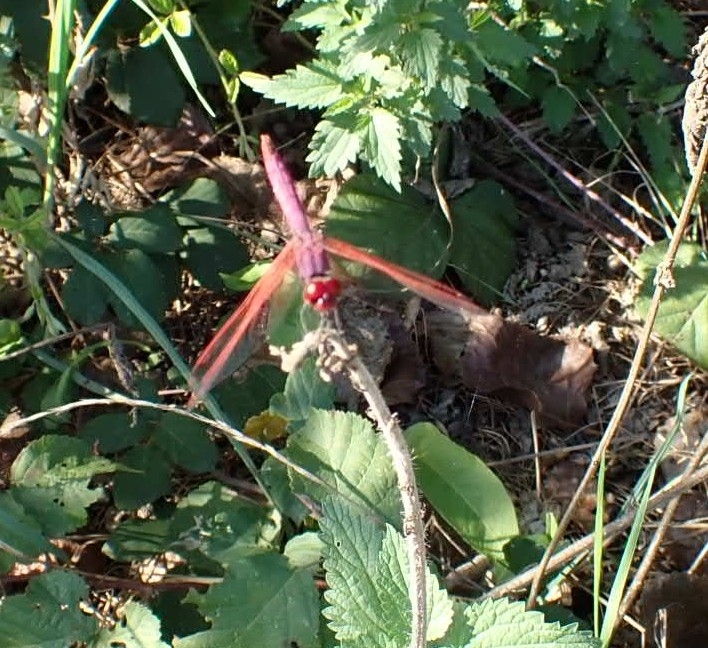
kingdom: Animalia
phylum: Arthropoda
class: Insecta
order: Odonata
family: Libellulidae
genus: Trithemis
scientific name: Trithemis annulata
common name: Violet dropwing
